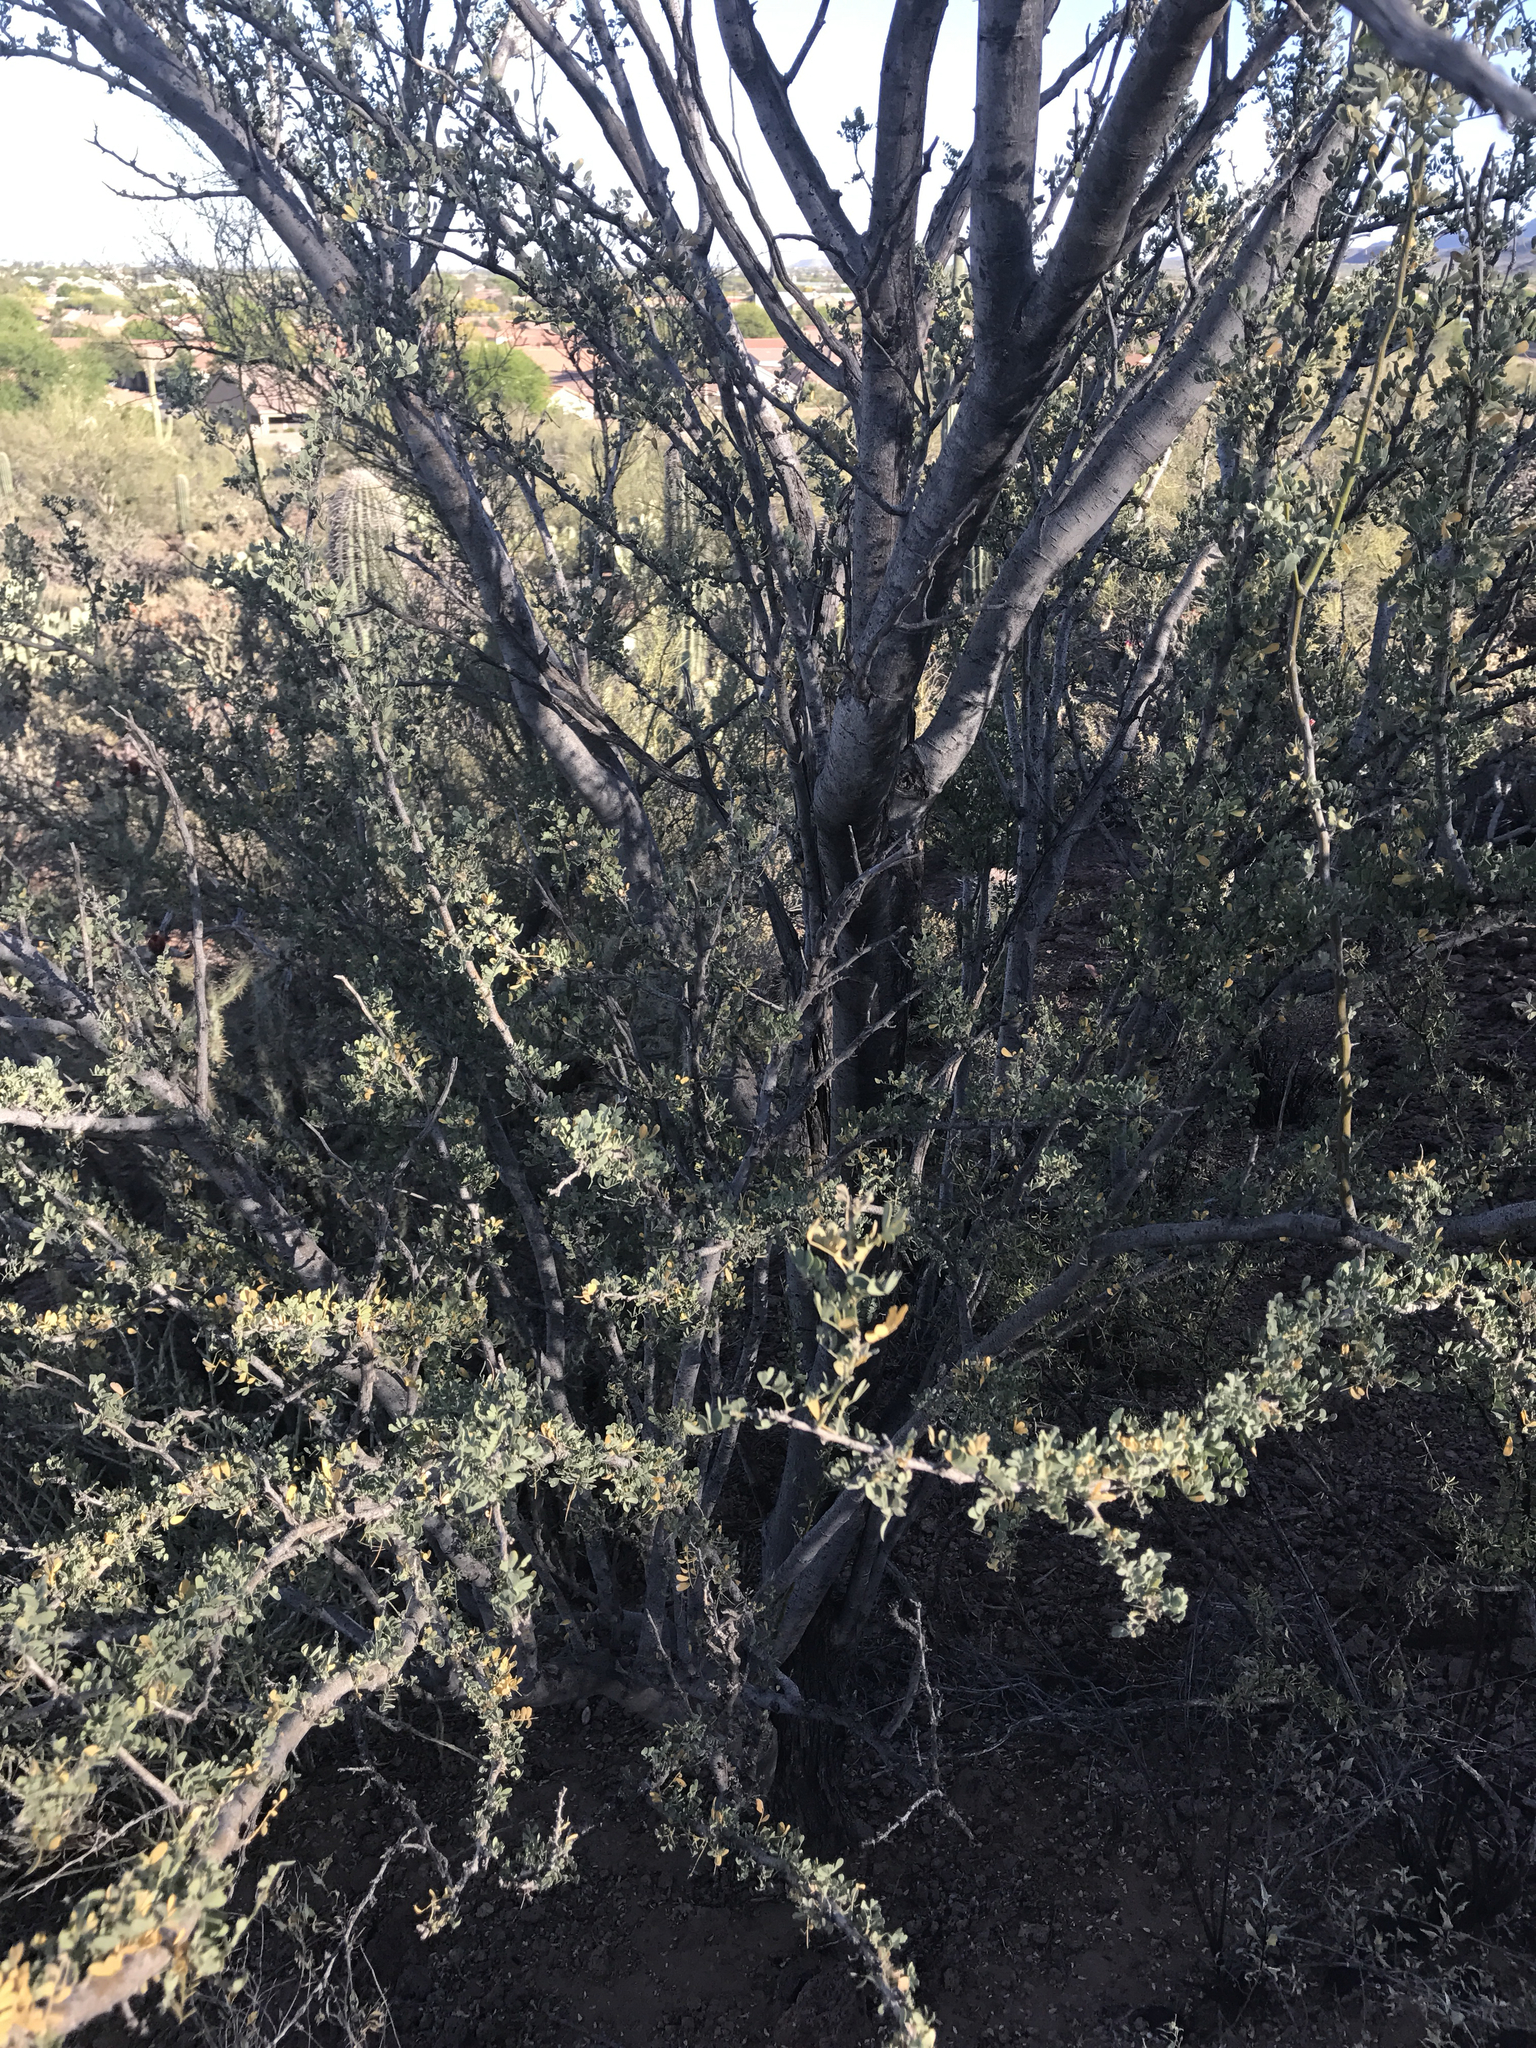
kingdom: Plantae
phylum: Tracheophyta
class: Magnoliopsida
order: Fabales
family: Fabaceae
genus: Olneya
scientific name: Olneya tesota
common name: Desert ironwood
